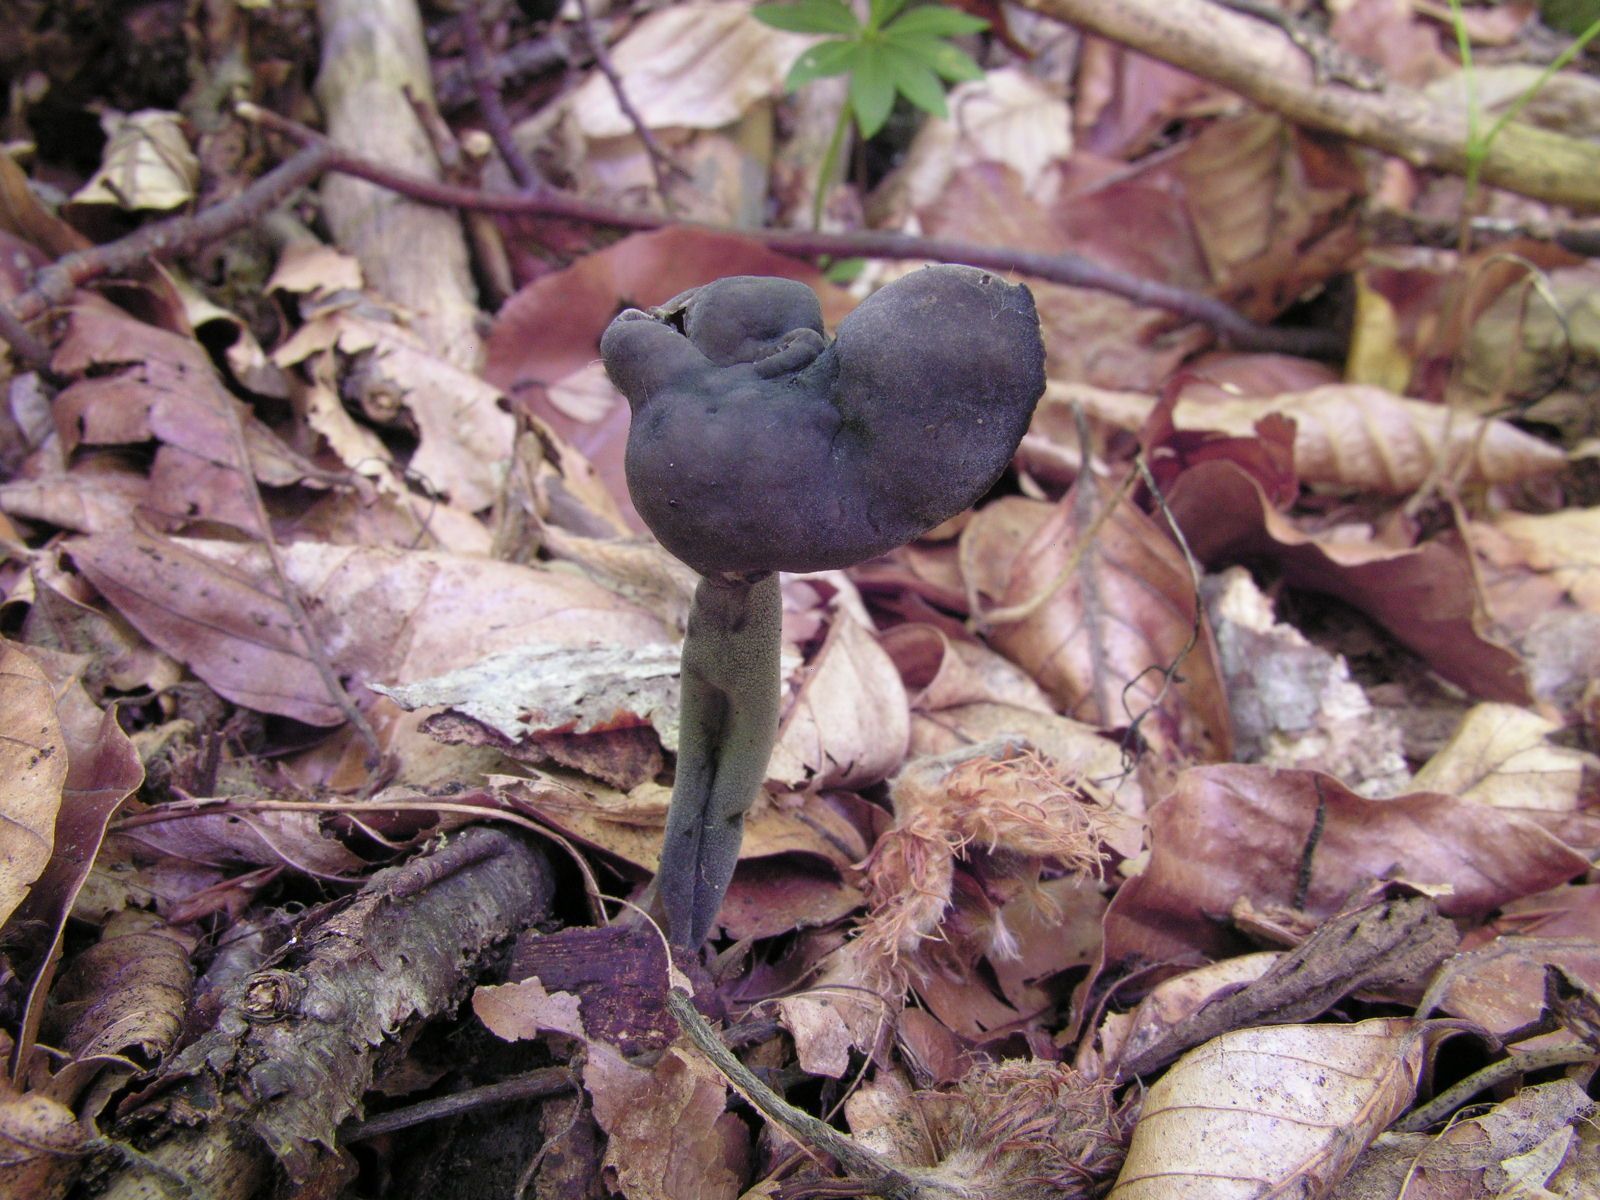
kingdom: Fungi
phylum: Ascomycota
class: Pezizomycetes
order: Pezizales
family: Helvellaceae
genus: Helvella
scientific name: Helvella atra
